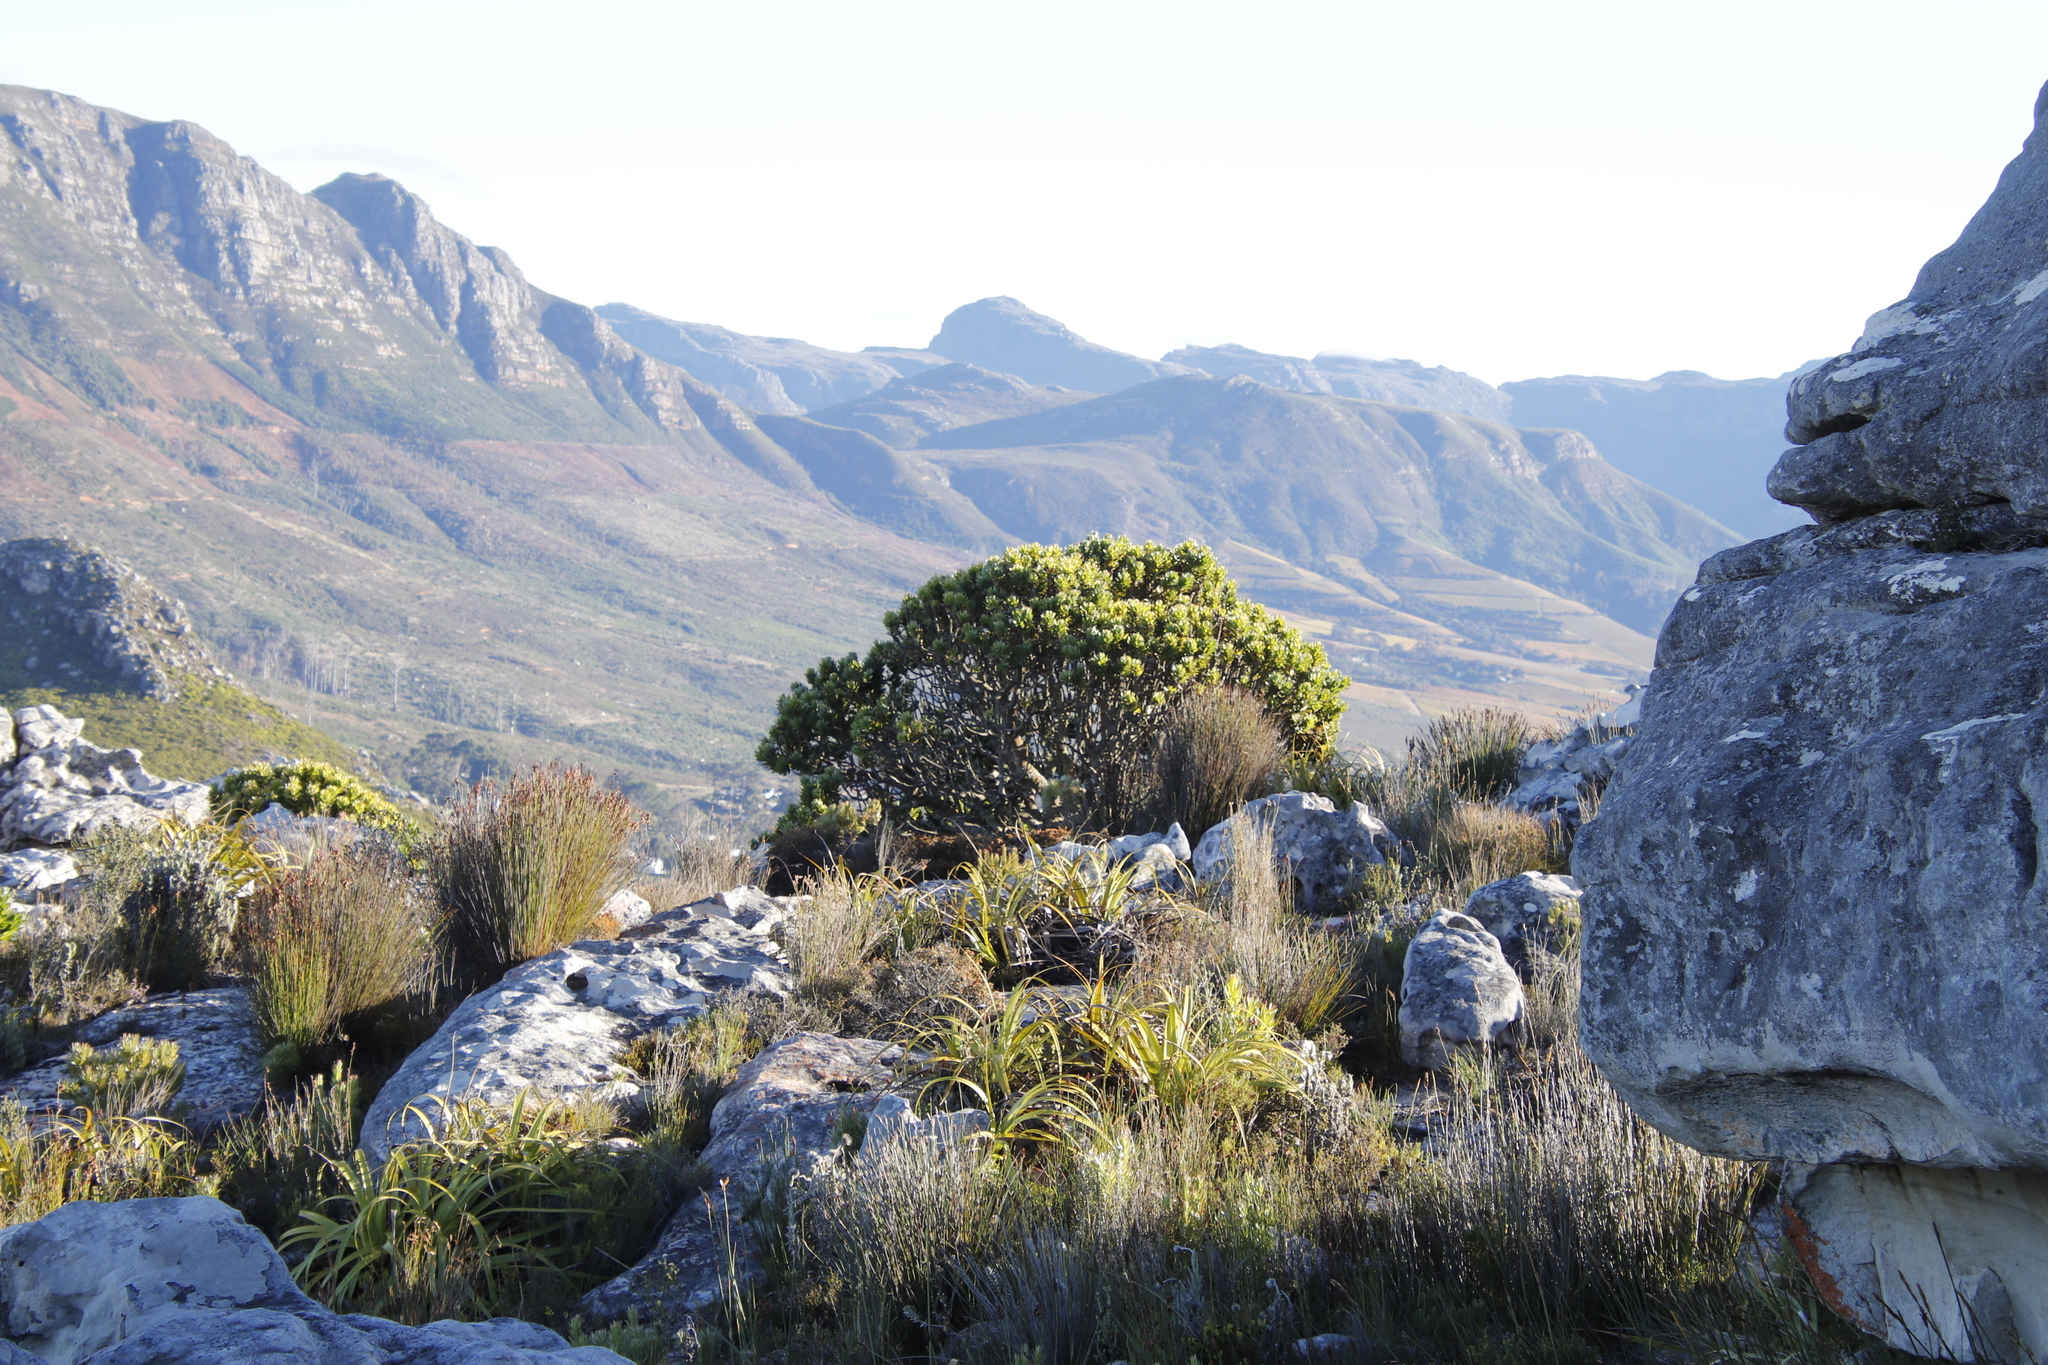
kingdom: Plantae
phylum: Tracheophyta
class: Magnoliopsida
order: Proteales
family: Proteaceae
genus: Mimetes
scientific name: Mimetes fimbriifolius
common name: Fringed bottlebrush
